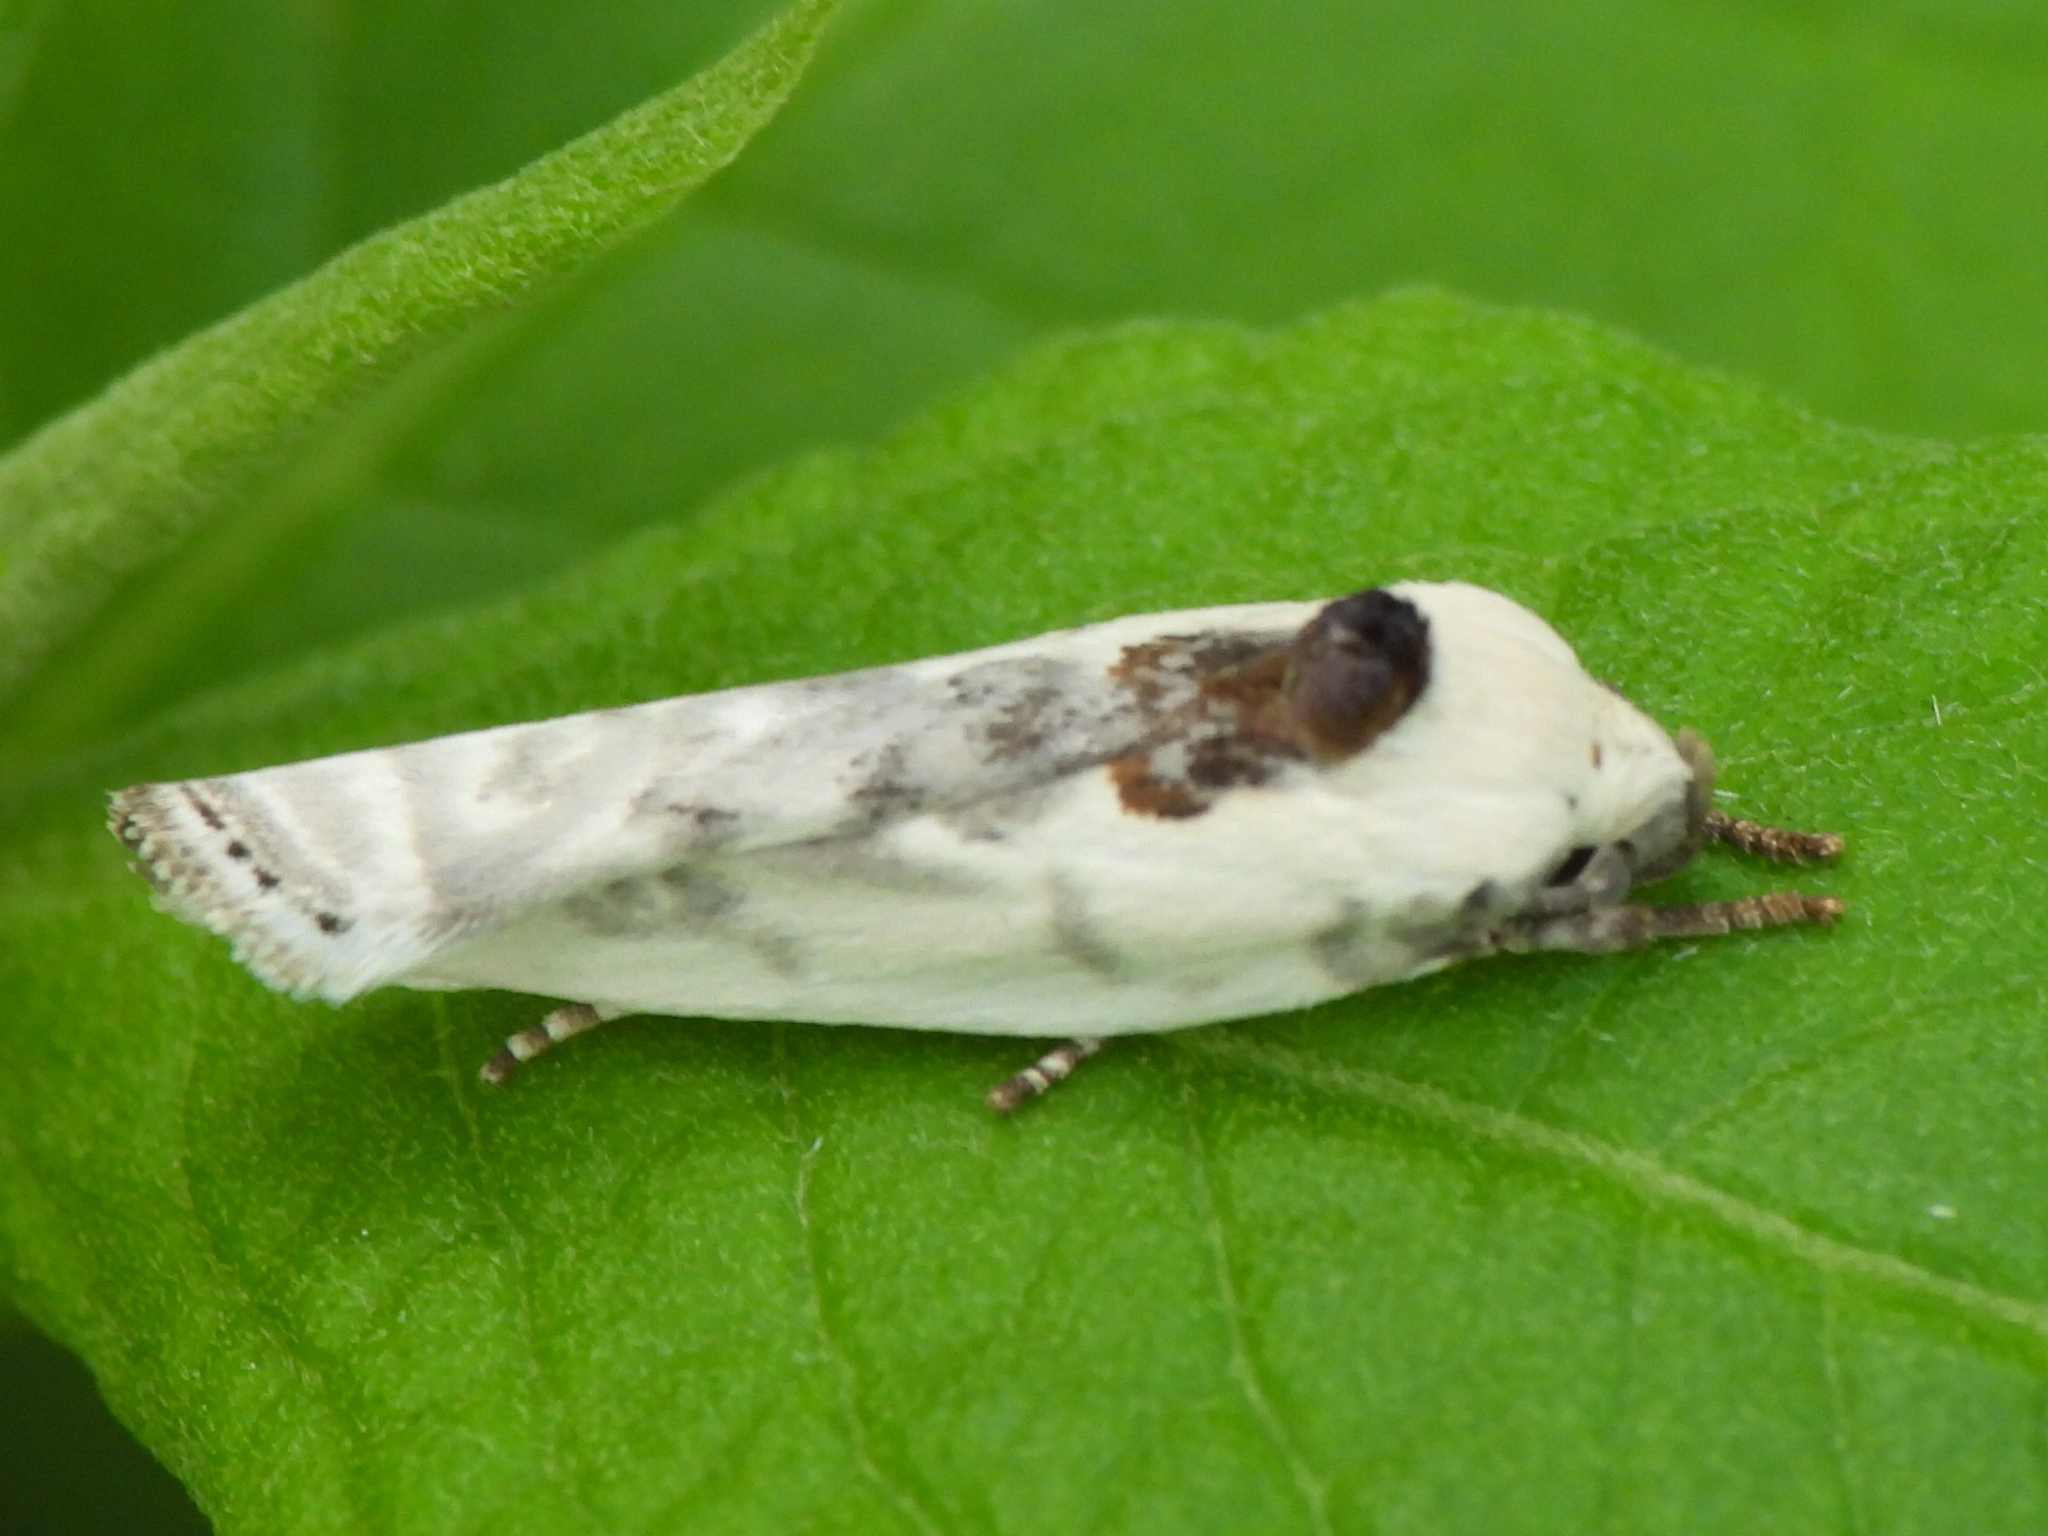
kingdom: Animalia
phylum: Arthropoda
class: Insecta
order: Lepidoptera
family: Depressariidae
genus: Antaeotricha
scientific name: Antaeotricha leucillana
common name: Pale gray bird-dropping moth
